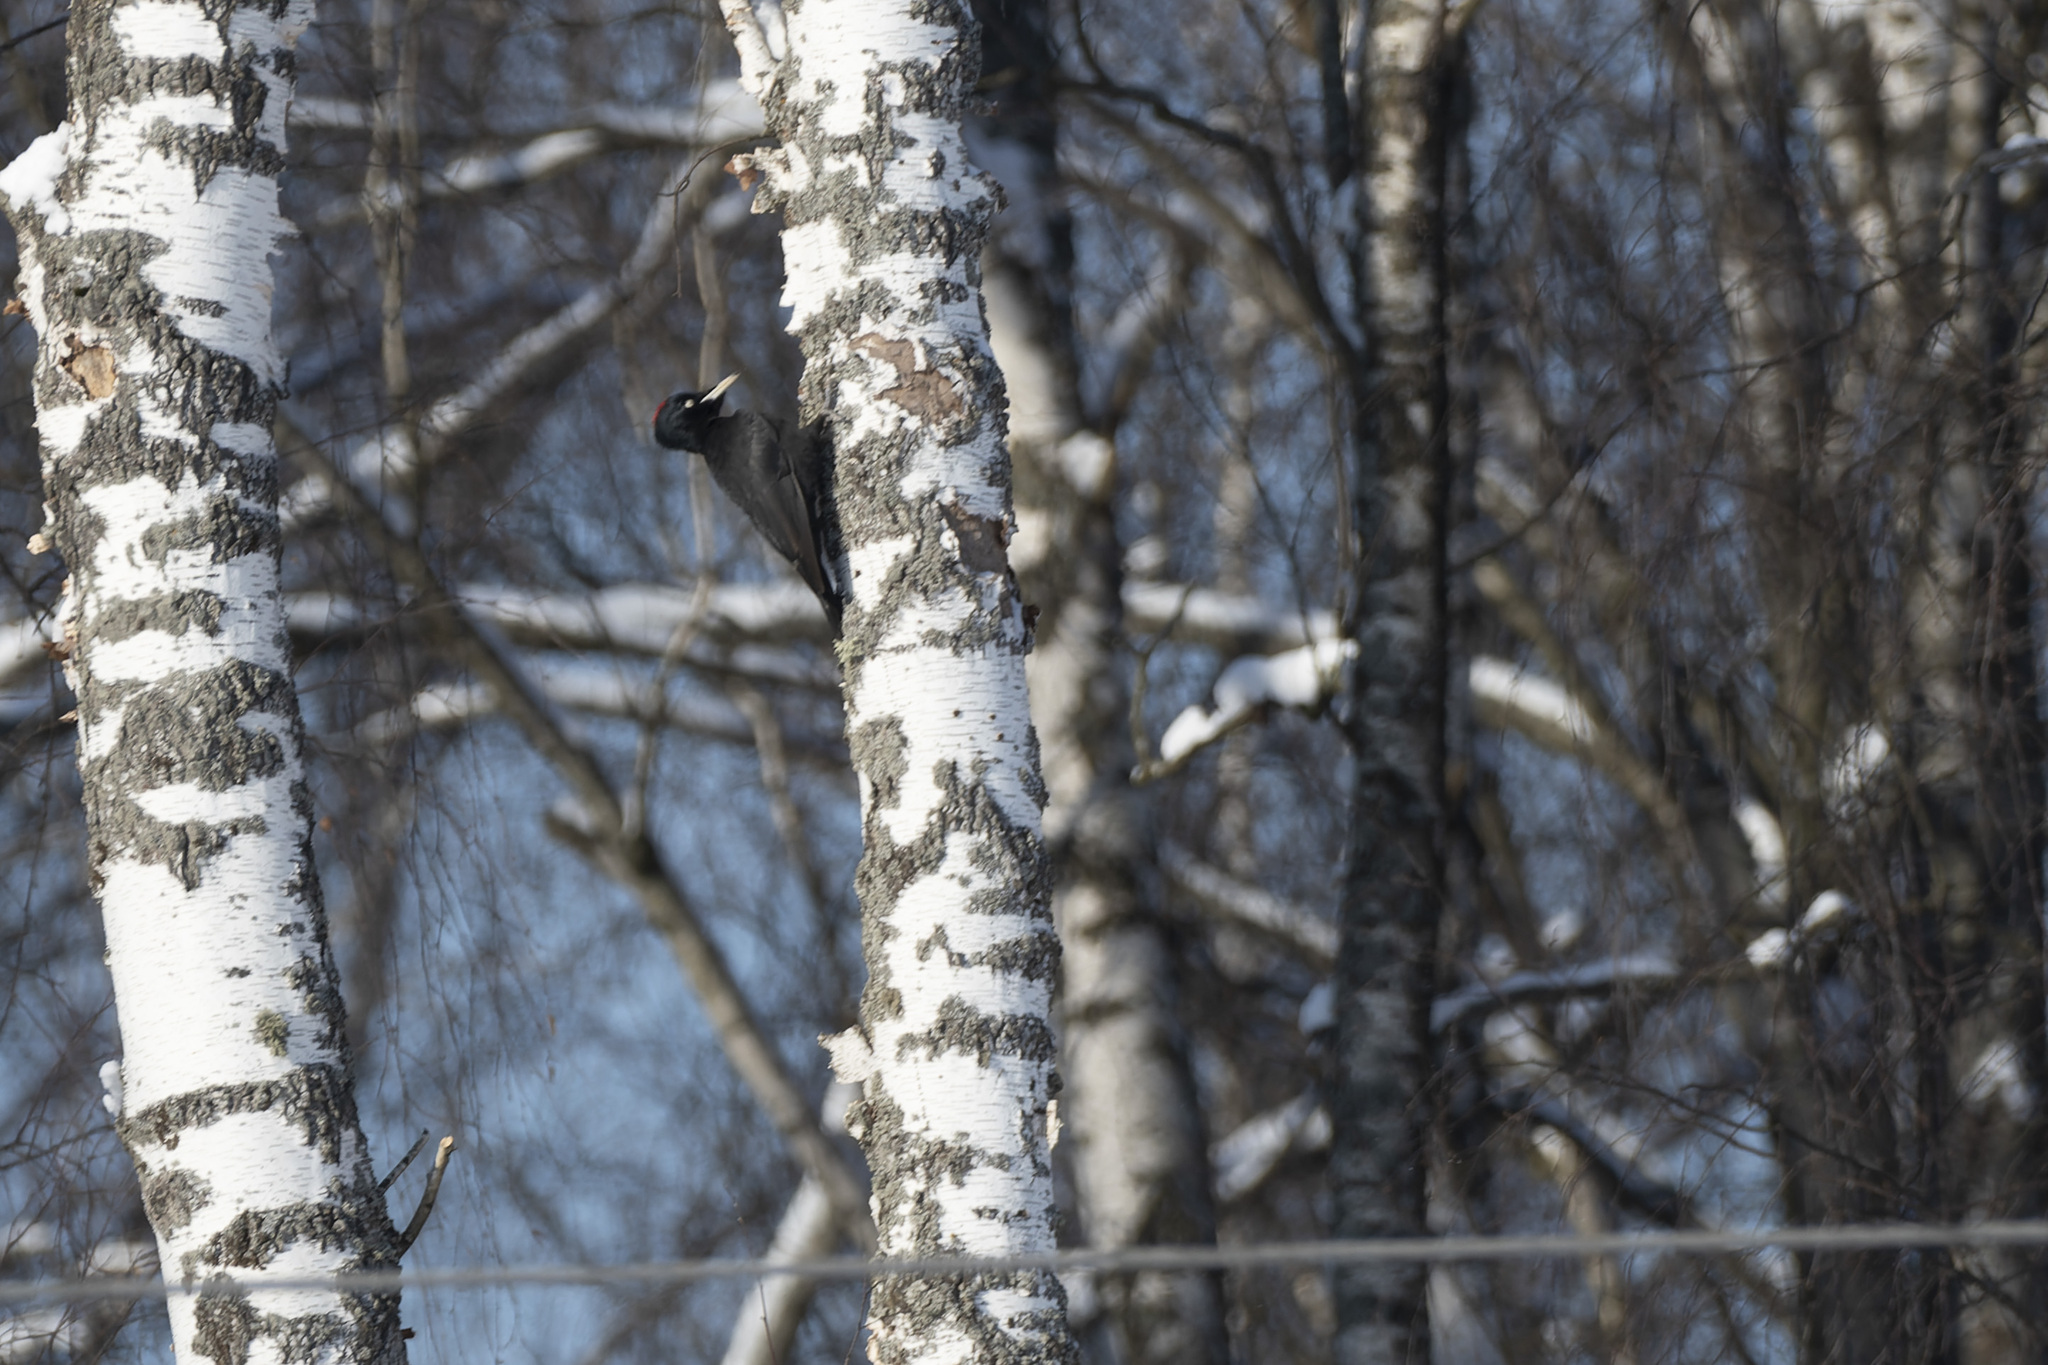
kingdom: Animalia
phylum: Chordata
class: Aves
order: Piciformes
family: Picidae
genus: Dryocopus
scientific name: Dryocopus martius
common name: Black woodpecker
